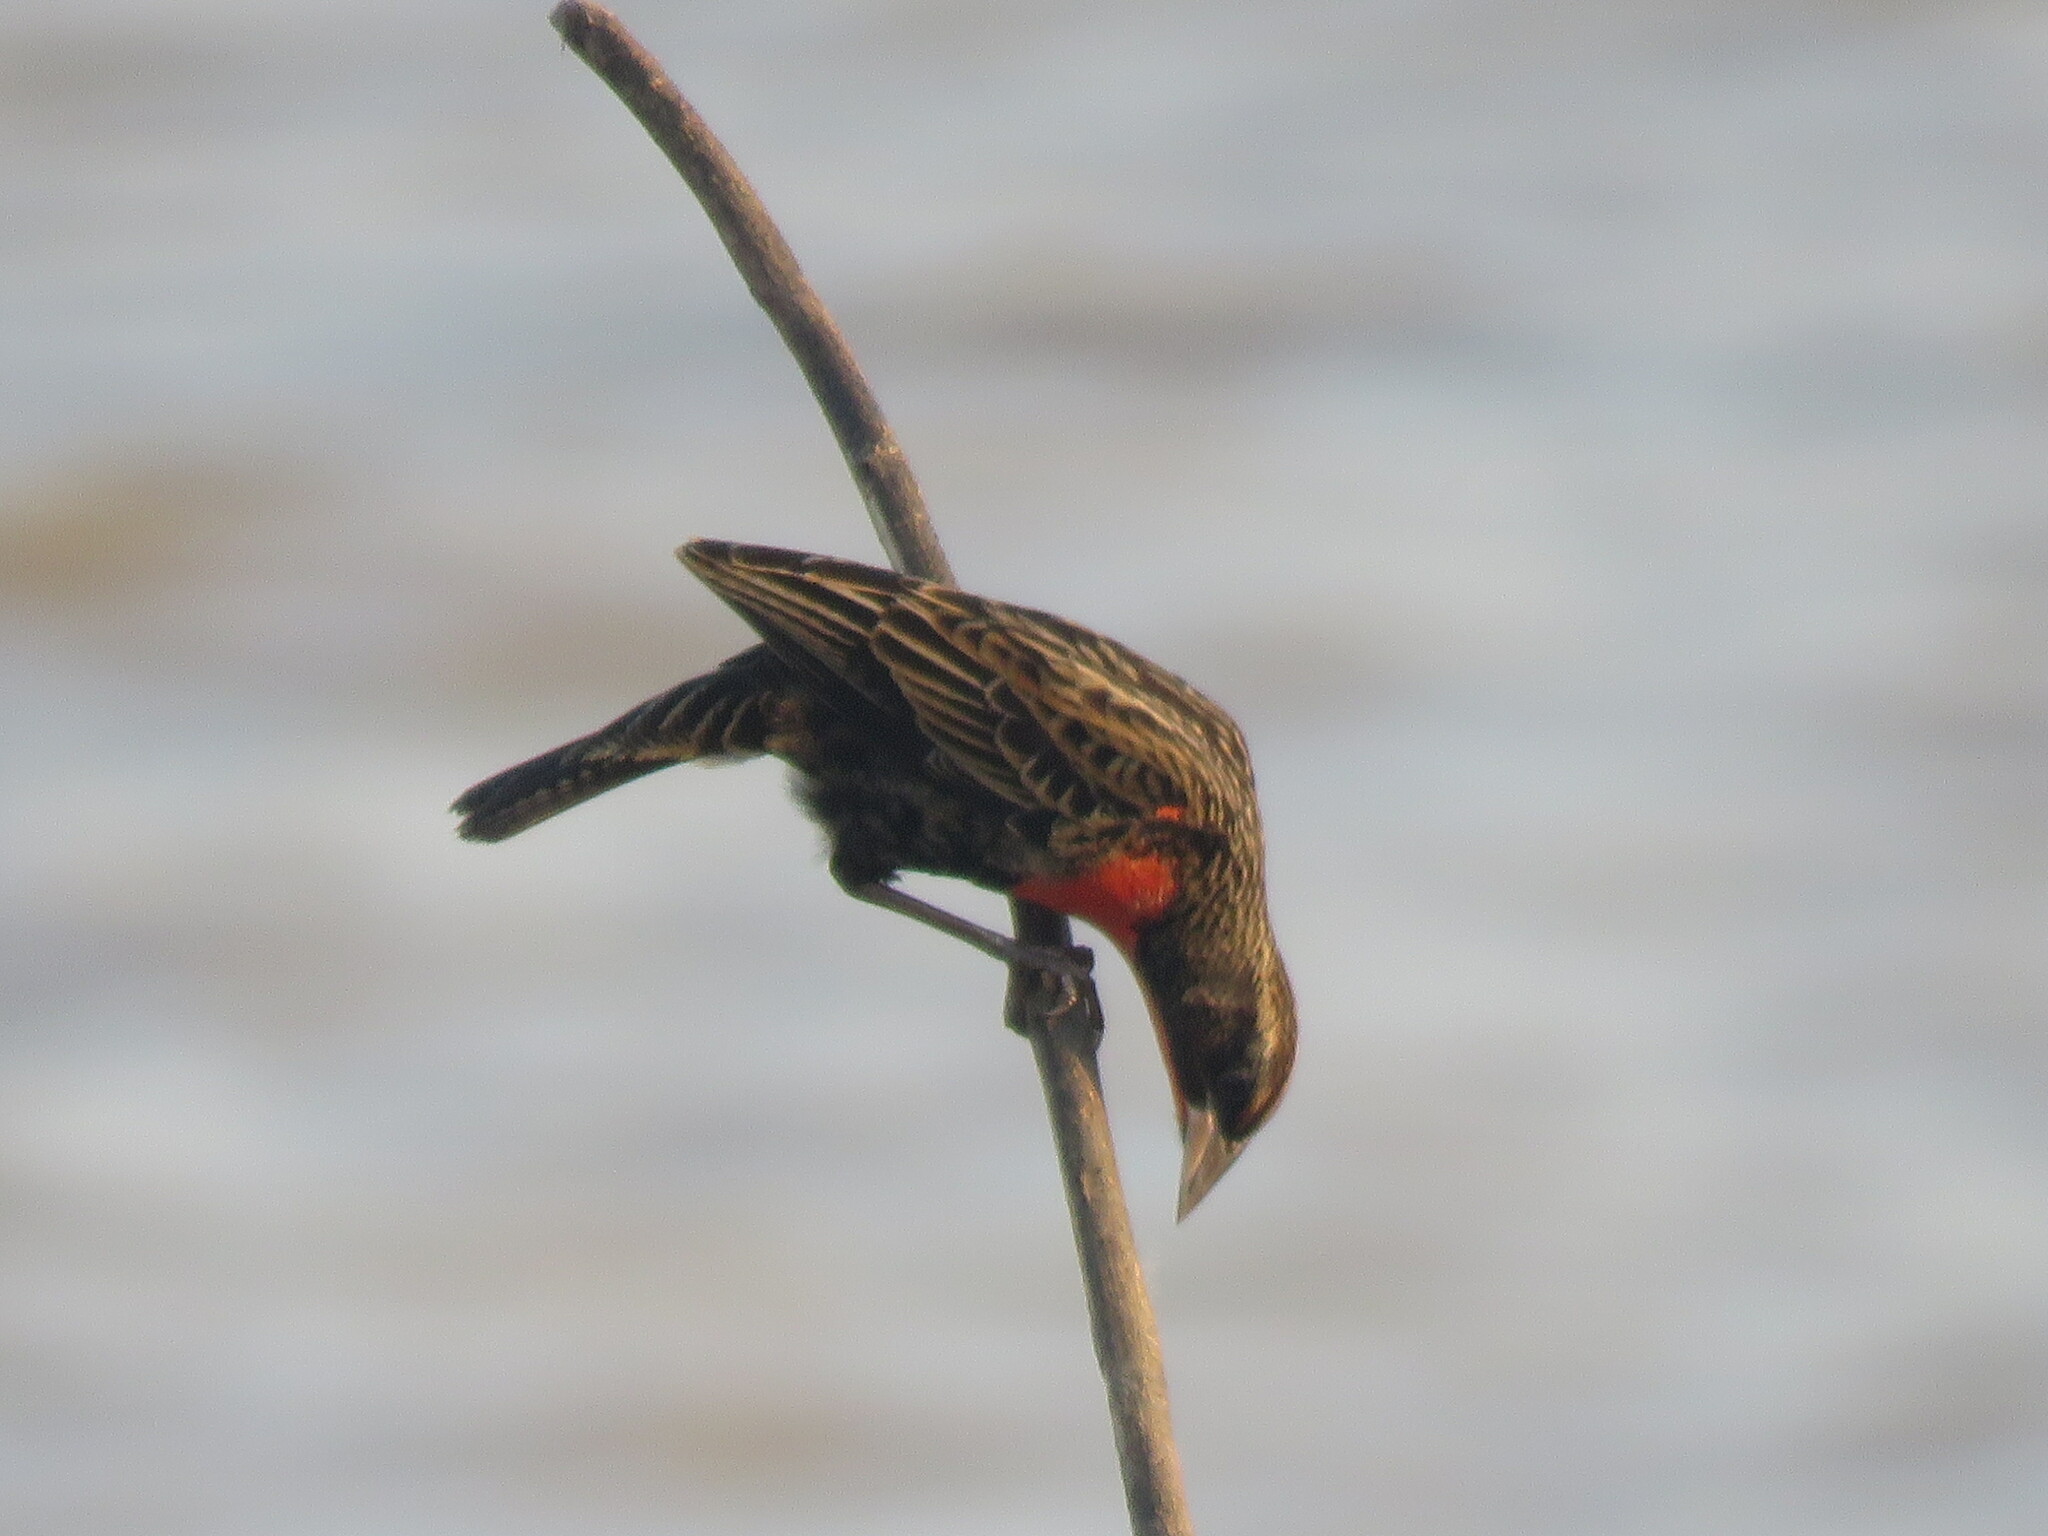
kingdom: Animalia
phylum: Chordata
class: Aves
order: Passeriformes
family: Icteridae
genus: Sturnella
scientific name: Sturnella superciliaris
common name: White-browed blackbird
